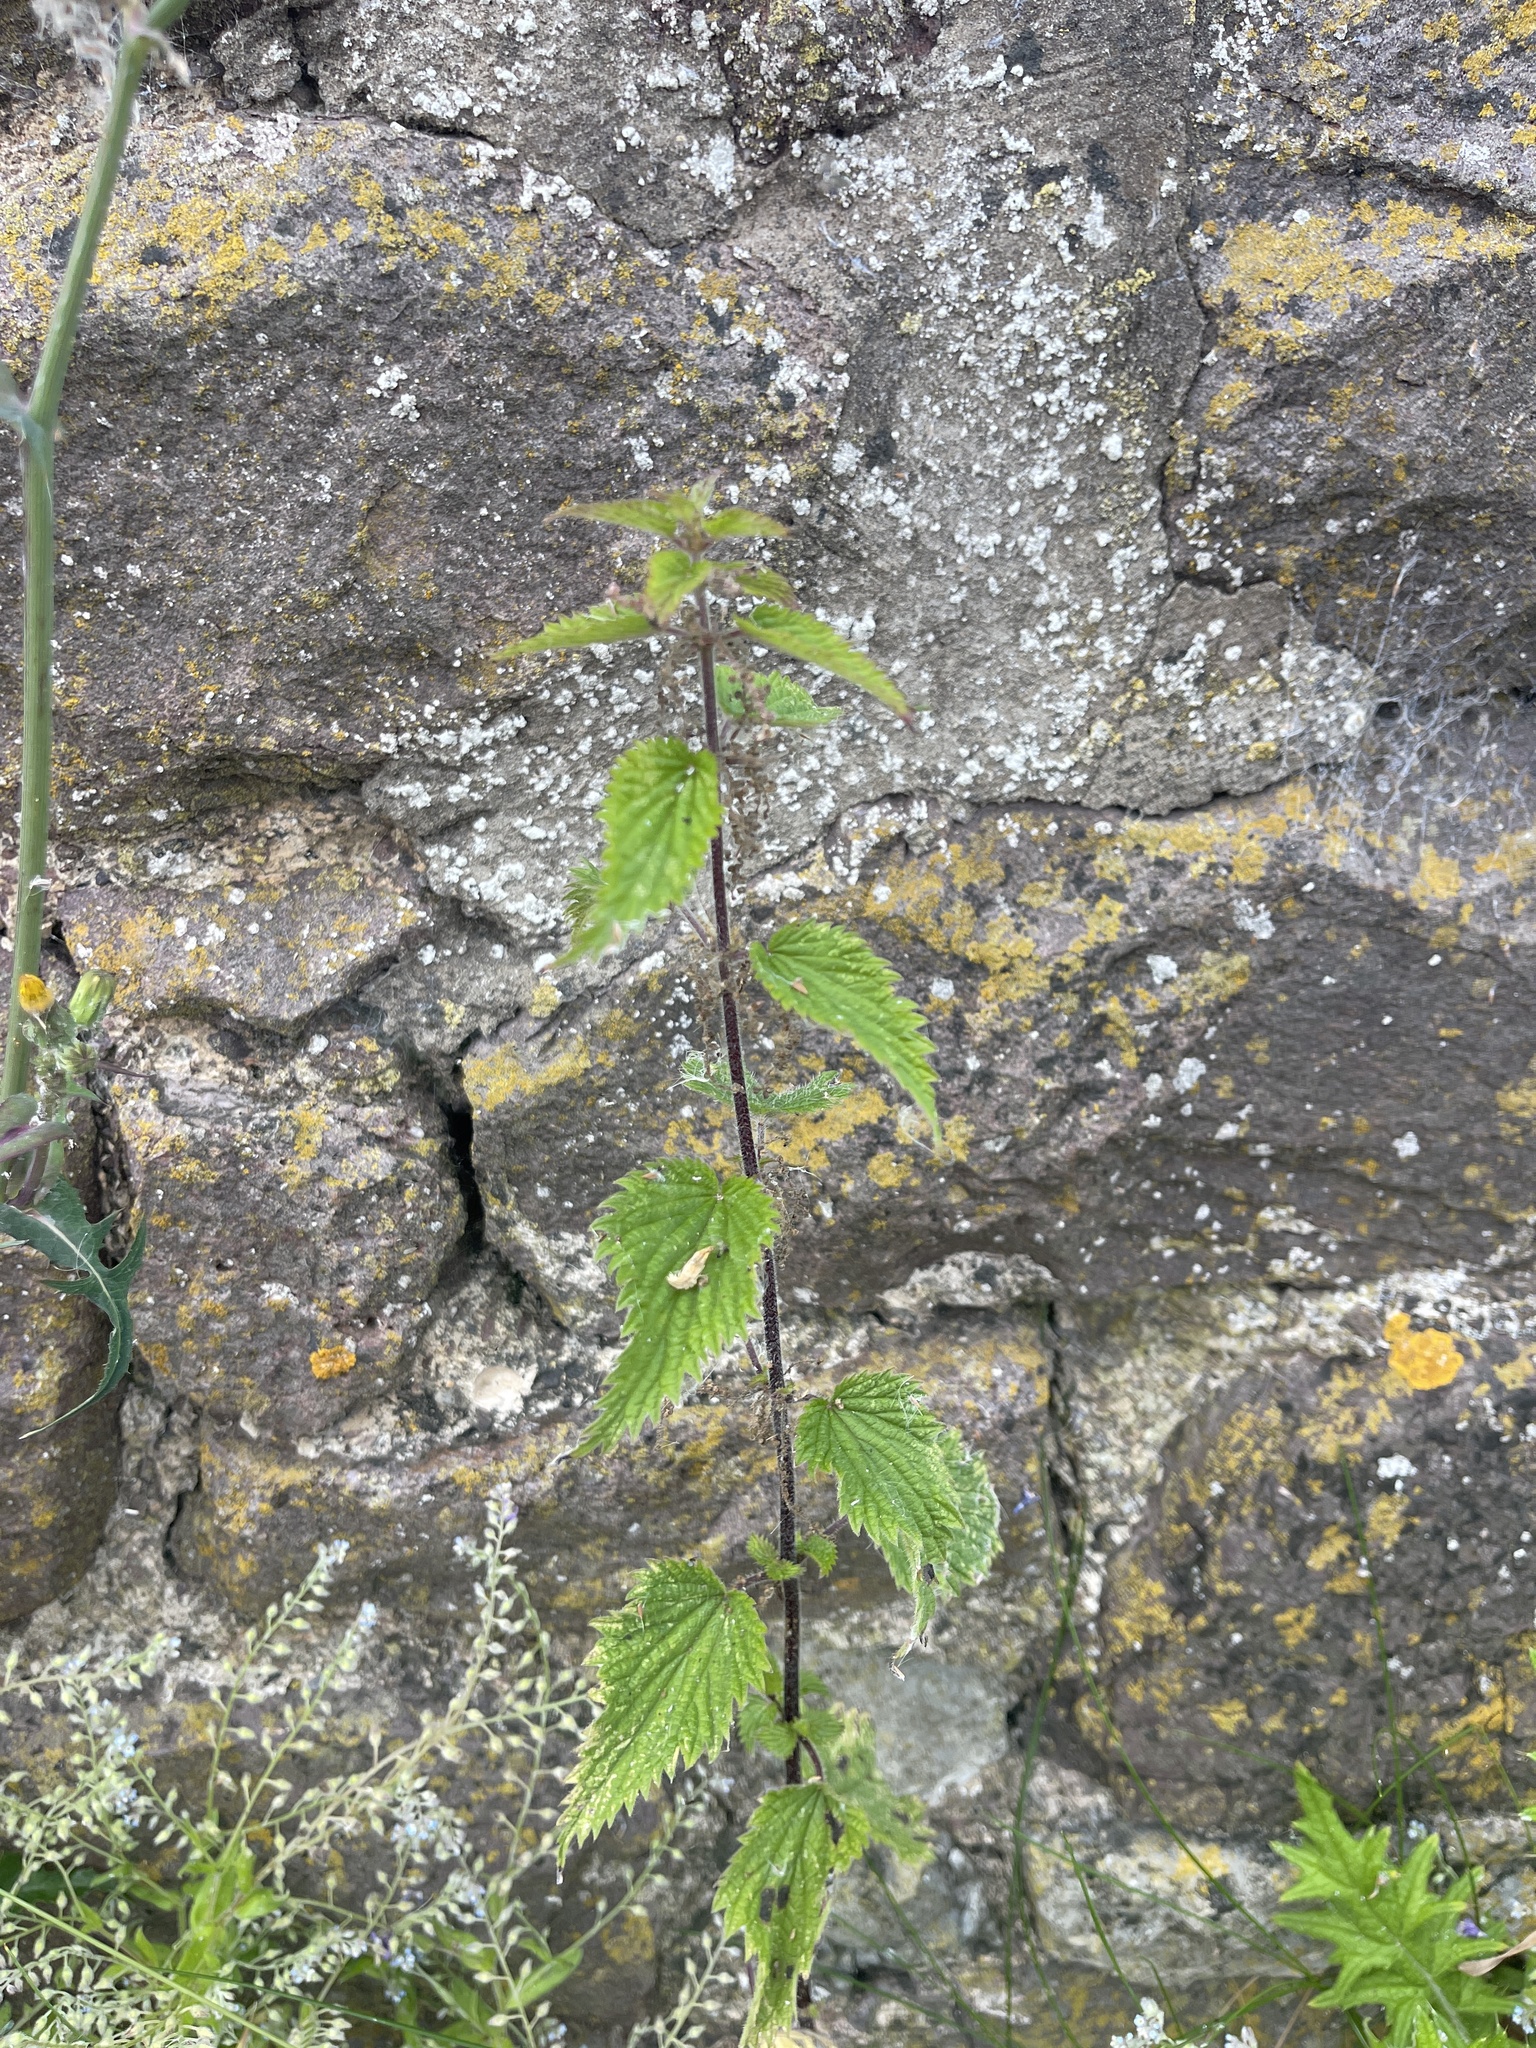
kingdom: Plantae
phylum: Tracheophyta
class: Magnoliopsida
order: Rosales
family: Urticaceae
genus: Urtica
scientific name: Urtica dioica
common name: Common nettle
